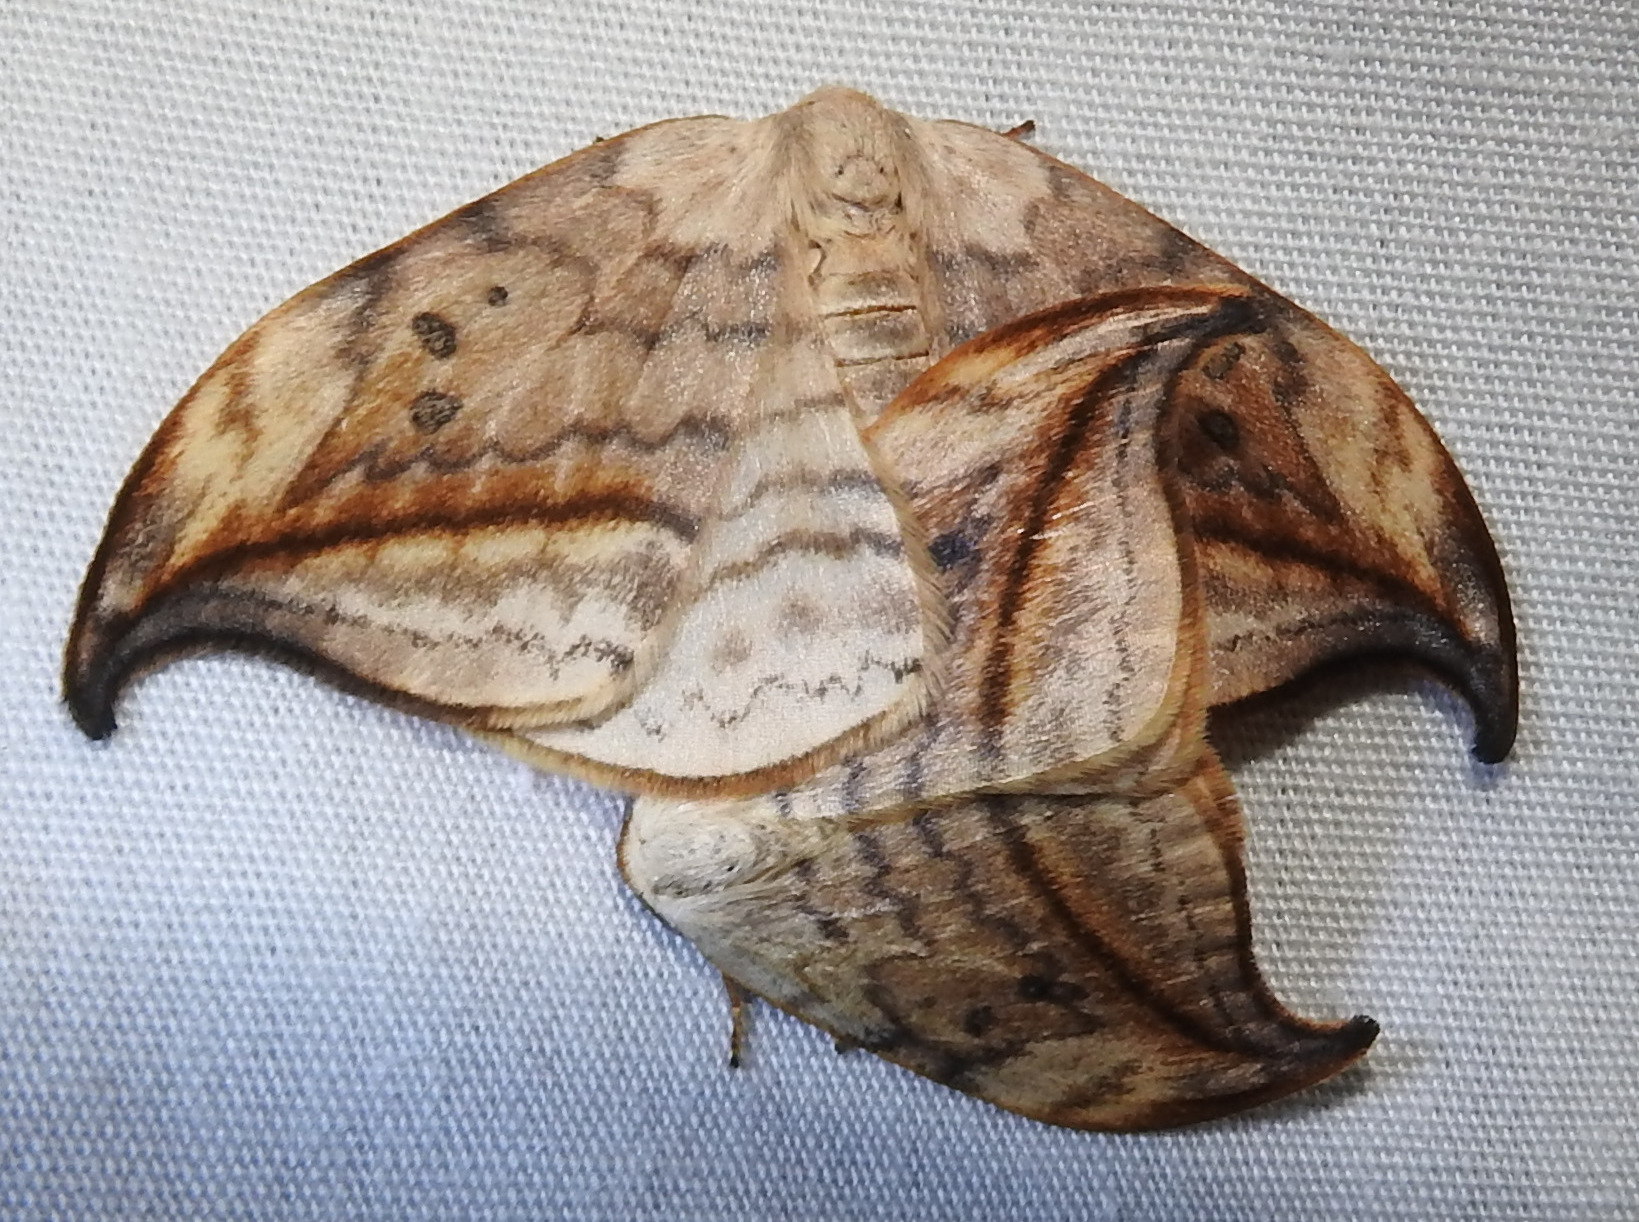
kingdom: Animalia
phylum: Arthropoda
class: Insecta
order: Lepidoptera
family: Drepanidae
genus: Drepana
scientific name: Drepana arcuata
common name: Arched hooktip moth
